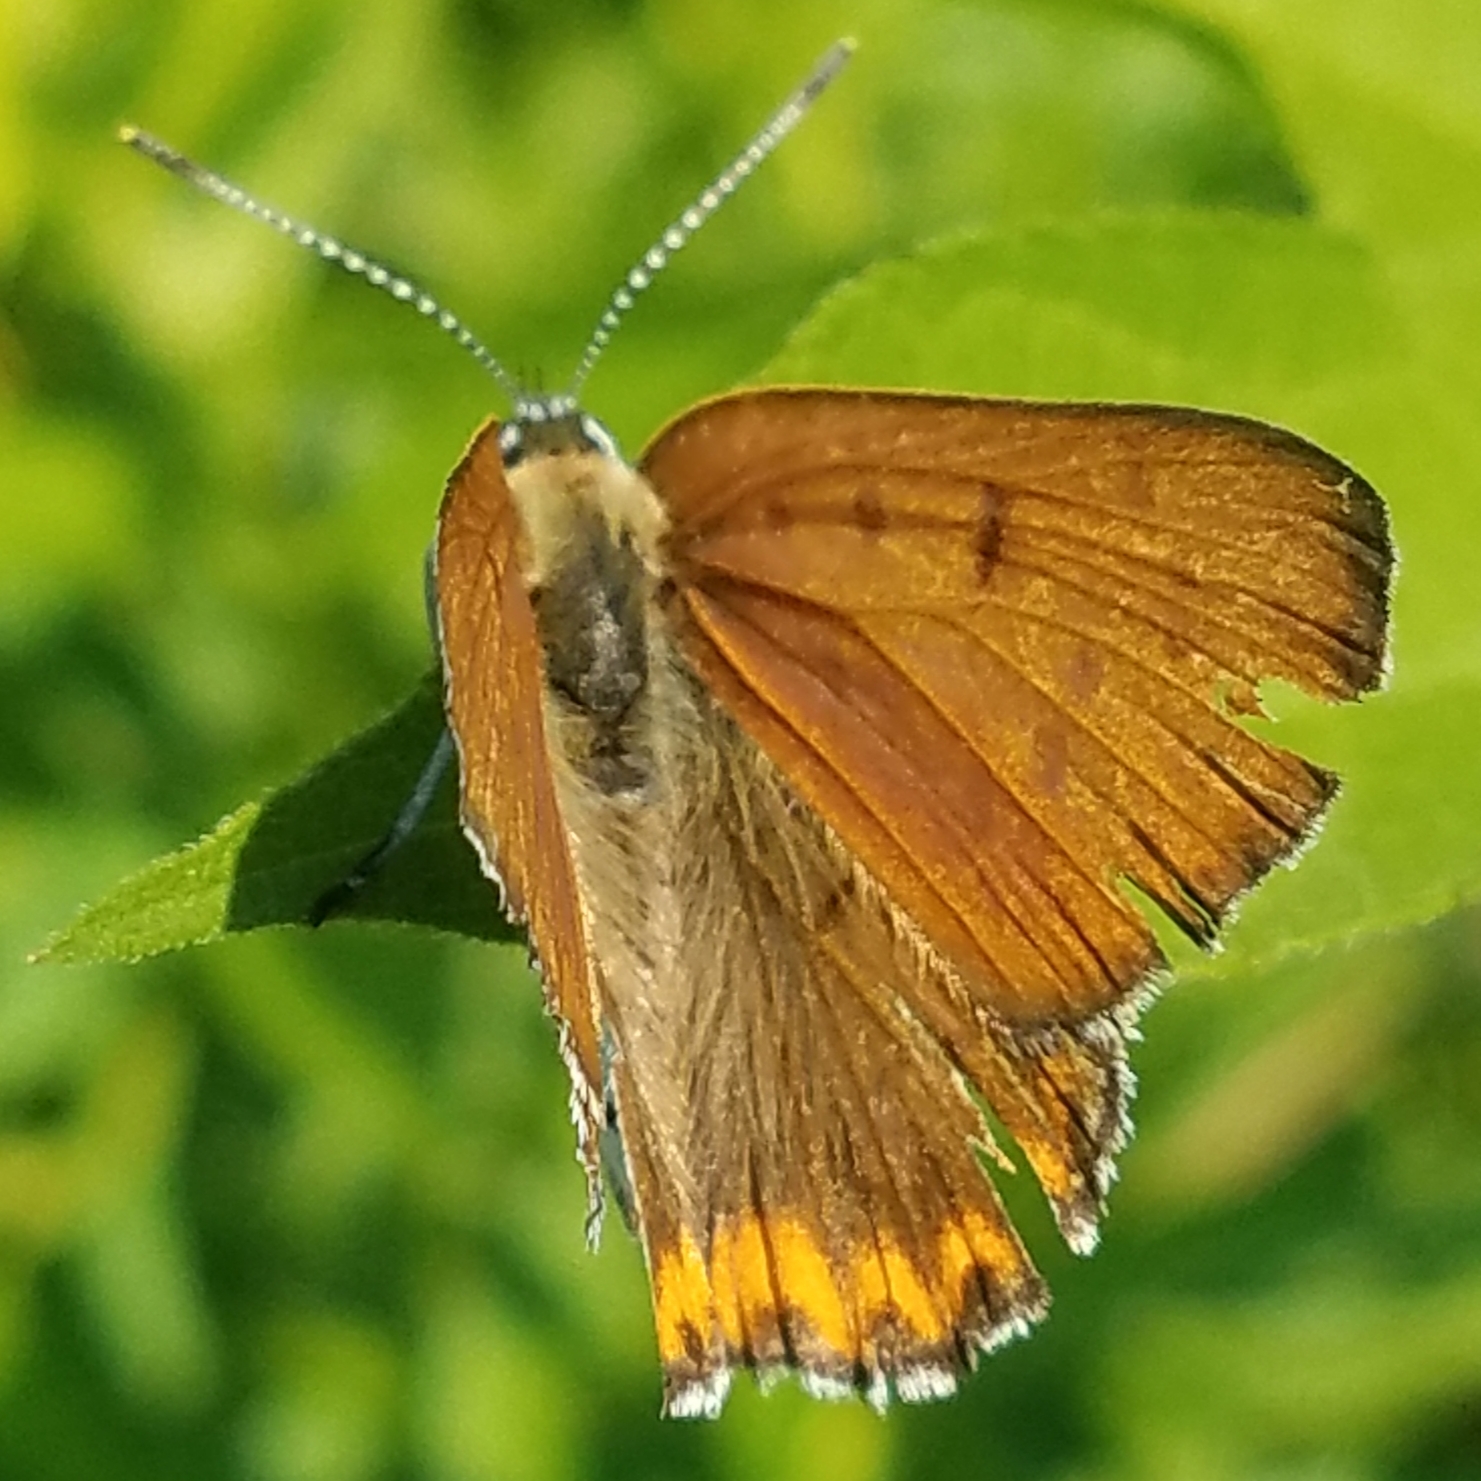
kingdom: Animalia
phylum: Arthropoda
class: Insecta
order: Lepidoptera
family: Lycaenidae
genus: Tharsalea
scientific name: Tharsalea hyllus
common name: Bronze copper
